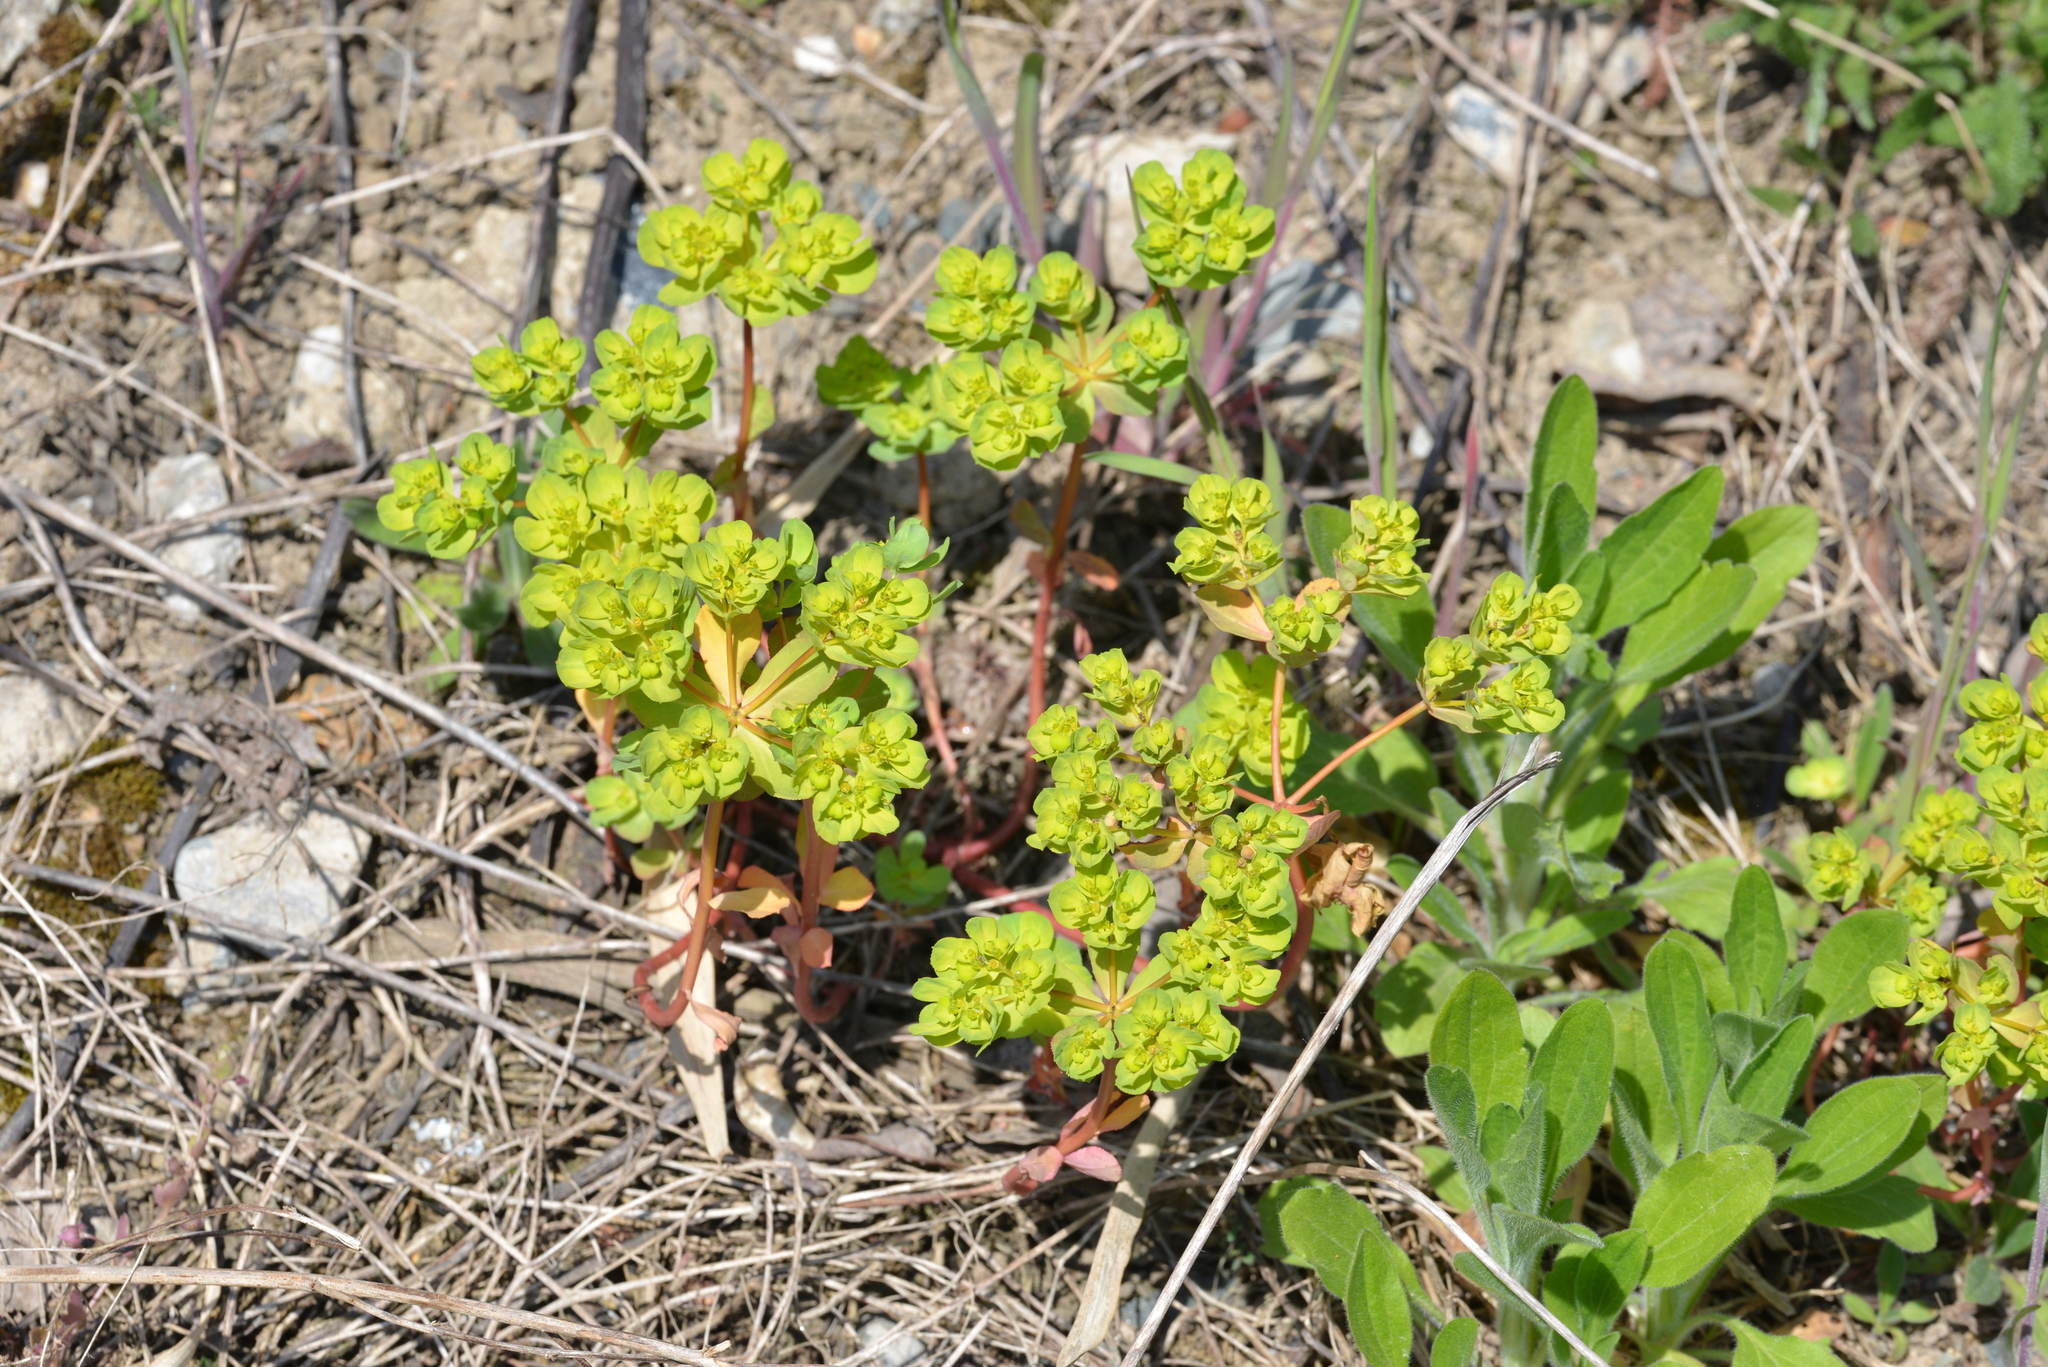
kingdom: Plantae
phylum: Tracheophyta
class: Magnoliopsida
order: Malpighiales
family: Euphorbiaceae
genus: Euphorbia
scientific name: Euphorbia helioscopia
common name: Sun spurge
